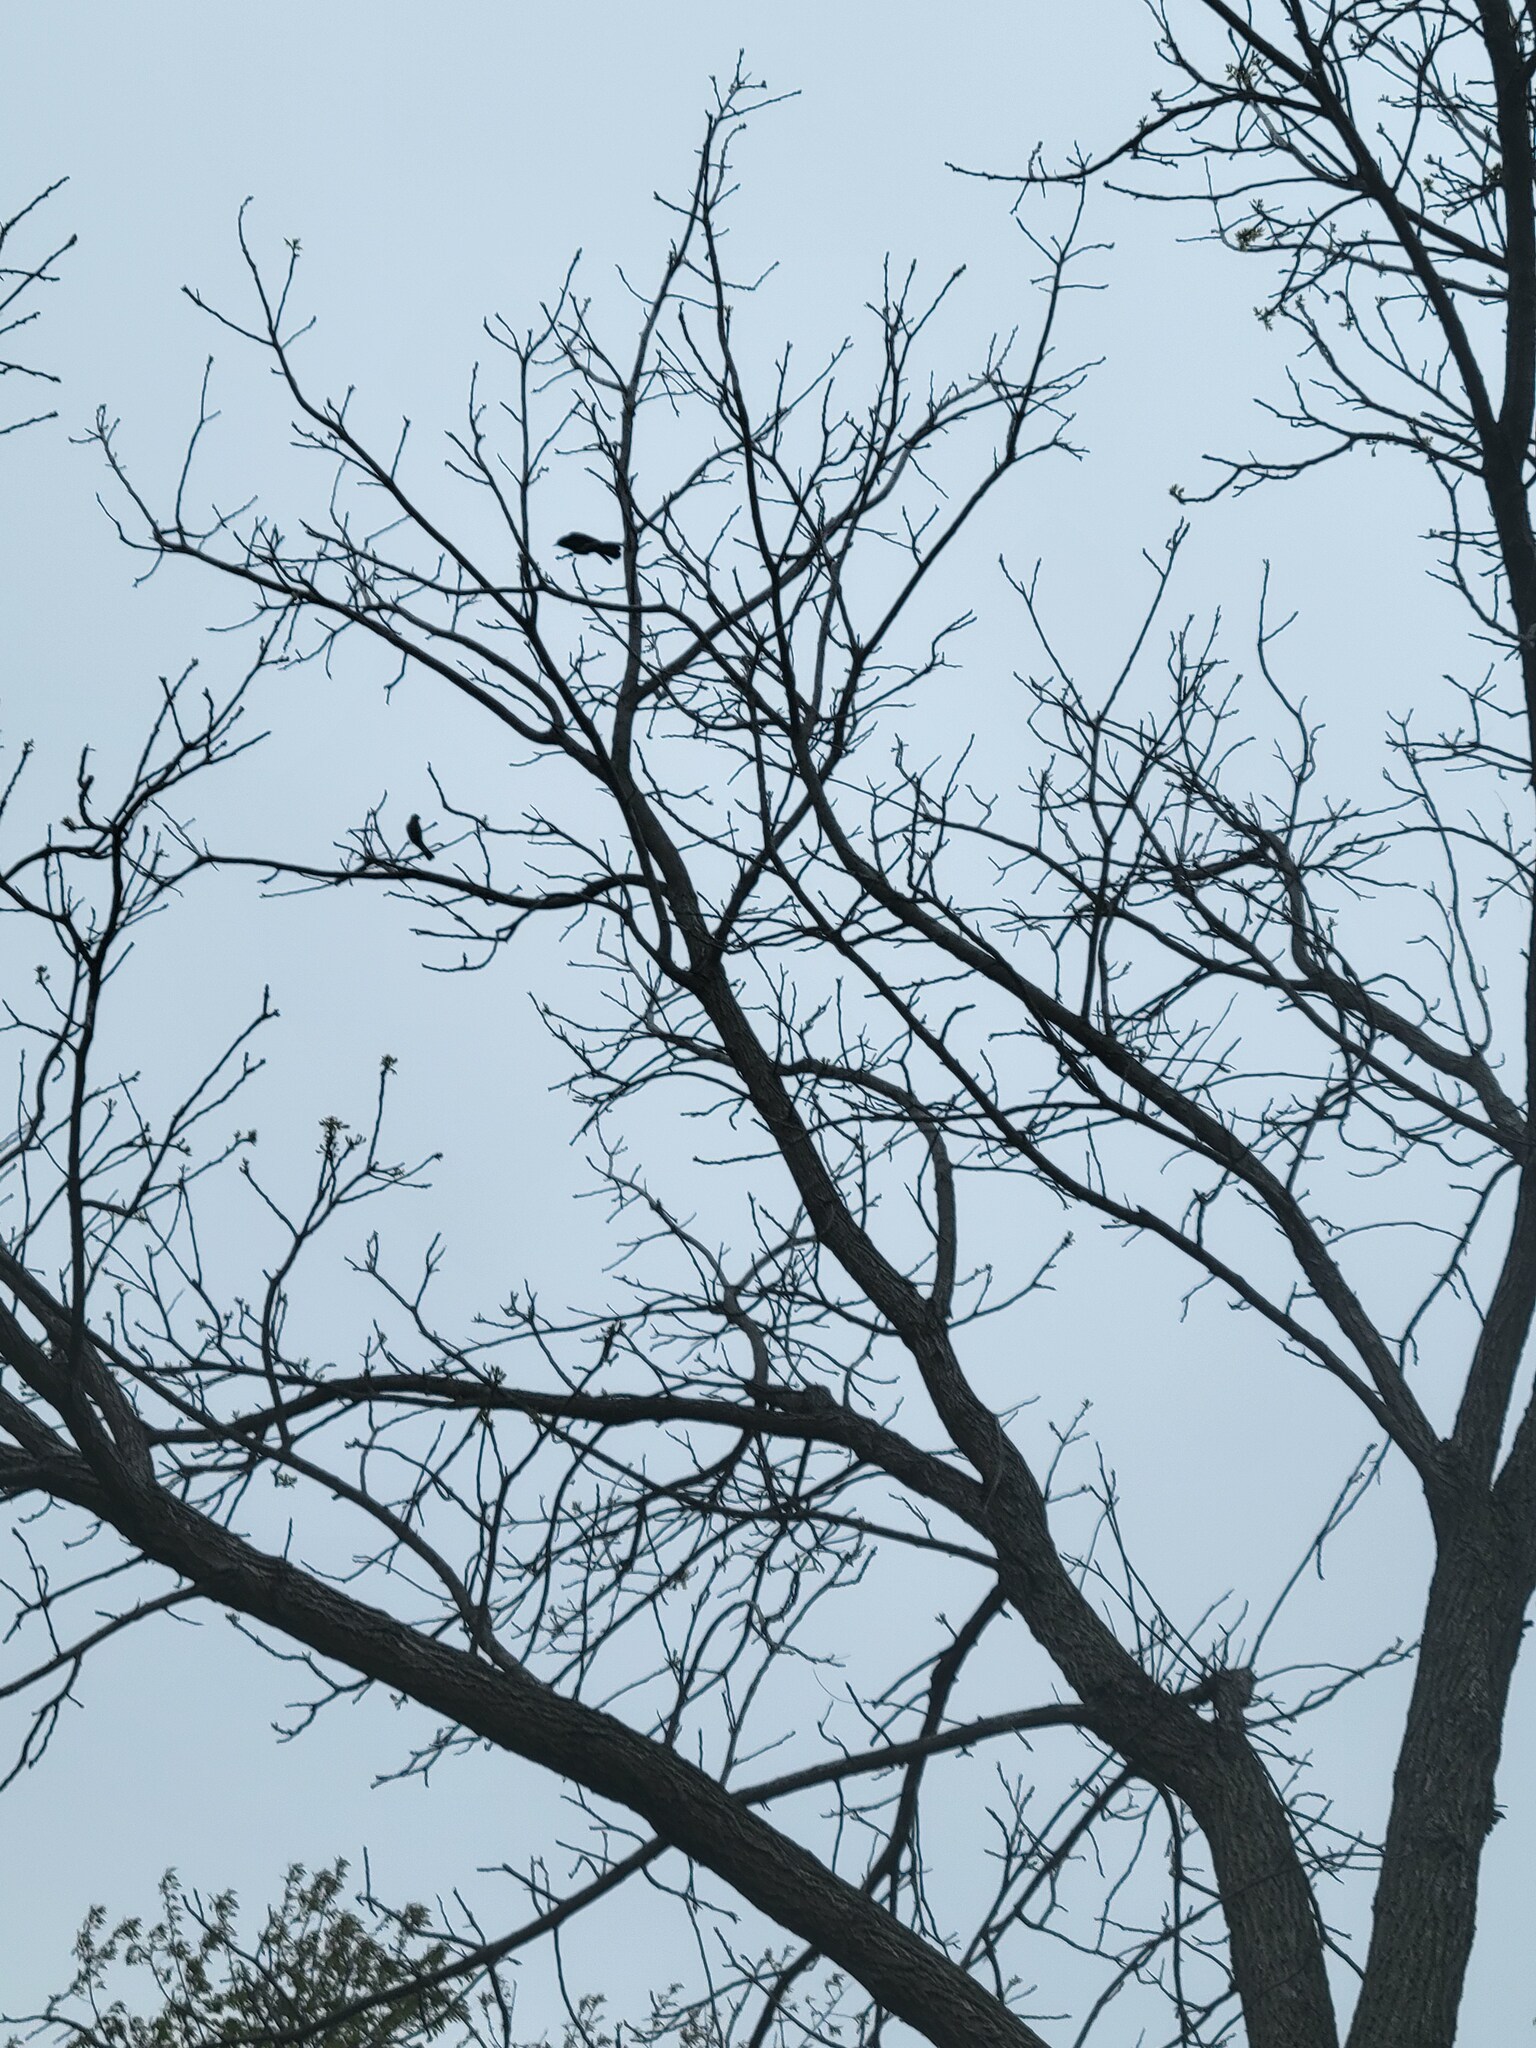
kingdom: Animalia
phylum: Chordata
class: Aves
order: Passeriformes
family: Icteridae
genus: Agelaius
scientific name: Agelaius phoeniceus
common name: Red-winged blackbird
